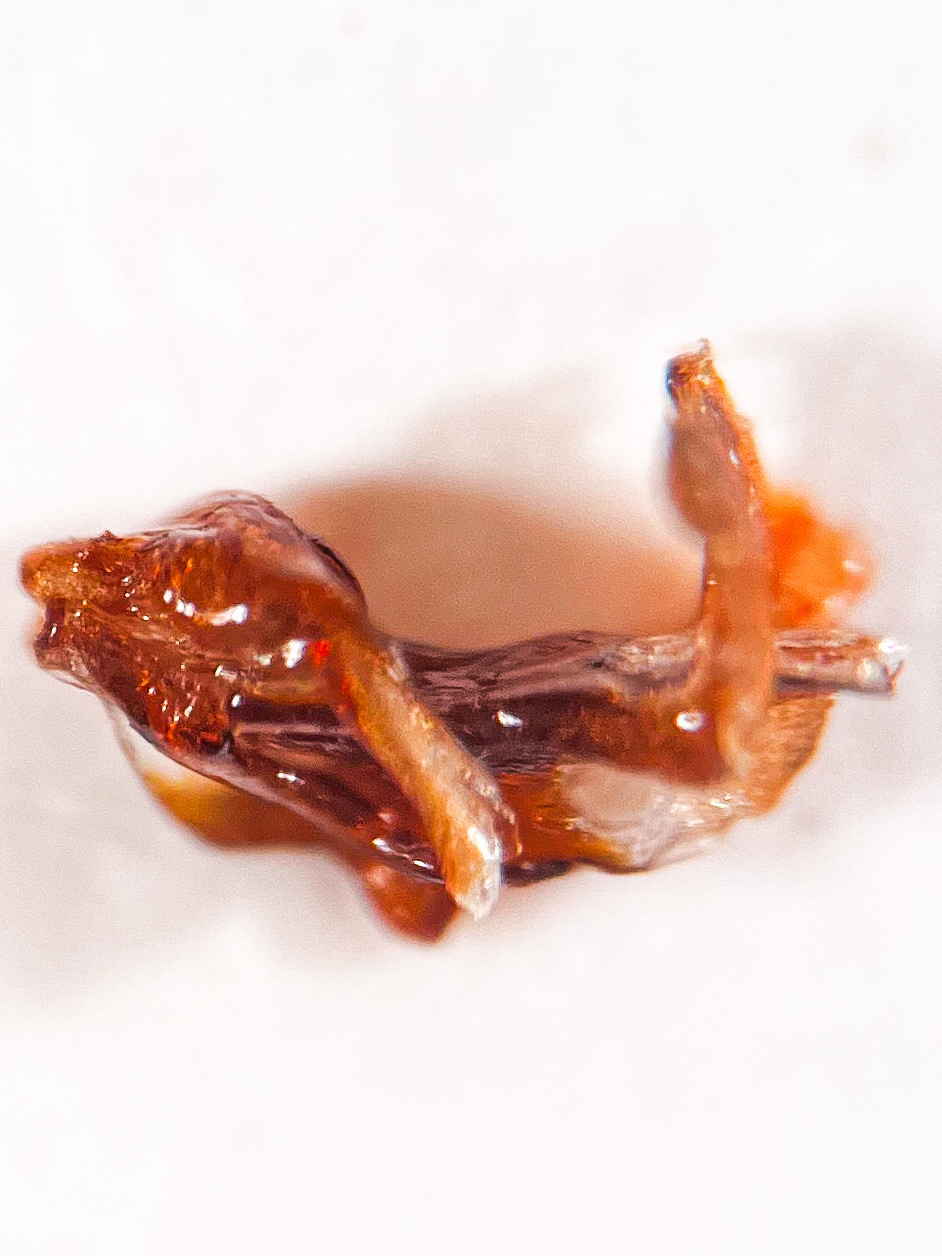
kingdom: Animalia
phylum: Arthropoda
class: Insecta
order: Hemiptera
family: Cixiidae
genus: Cixius
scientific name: Cixius nervosus
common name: Common lacehopper
